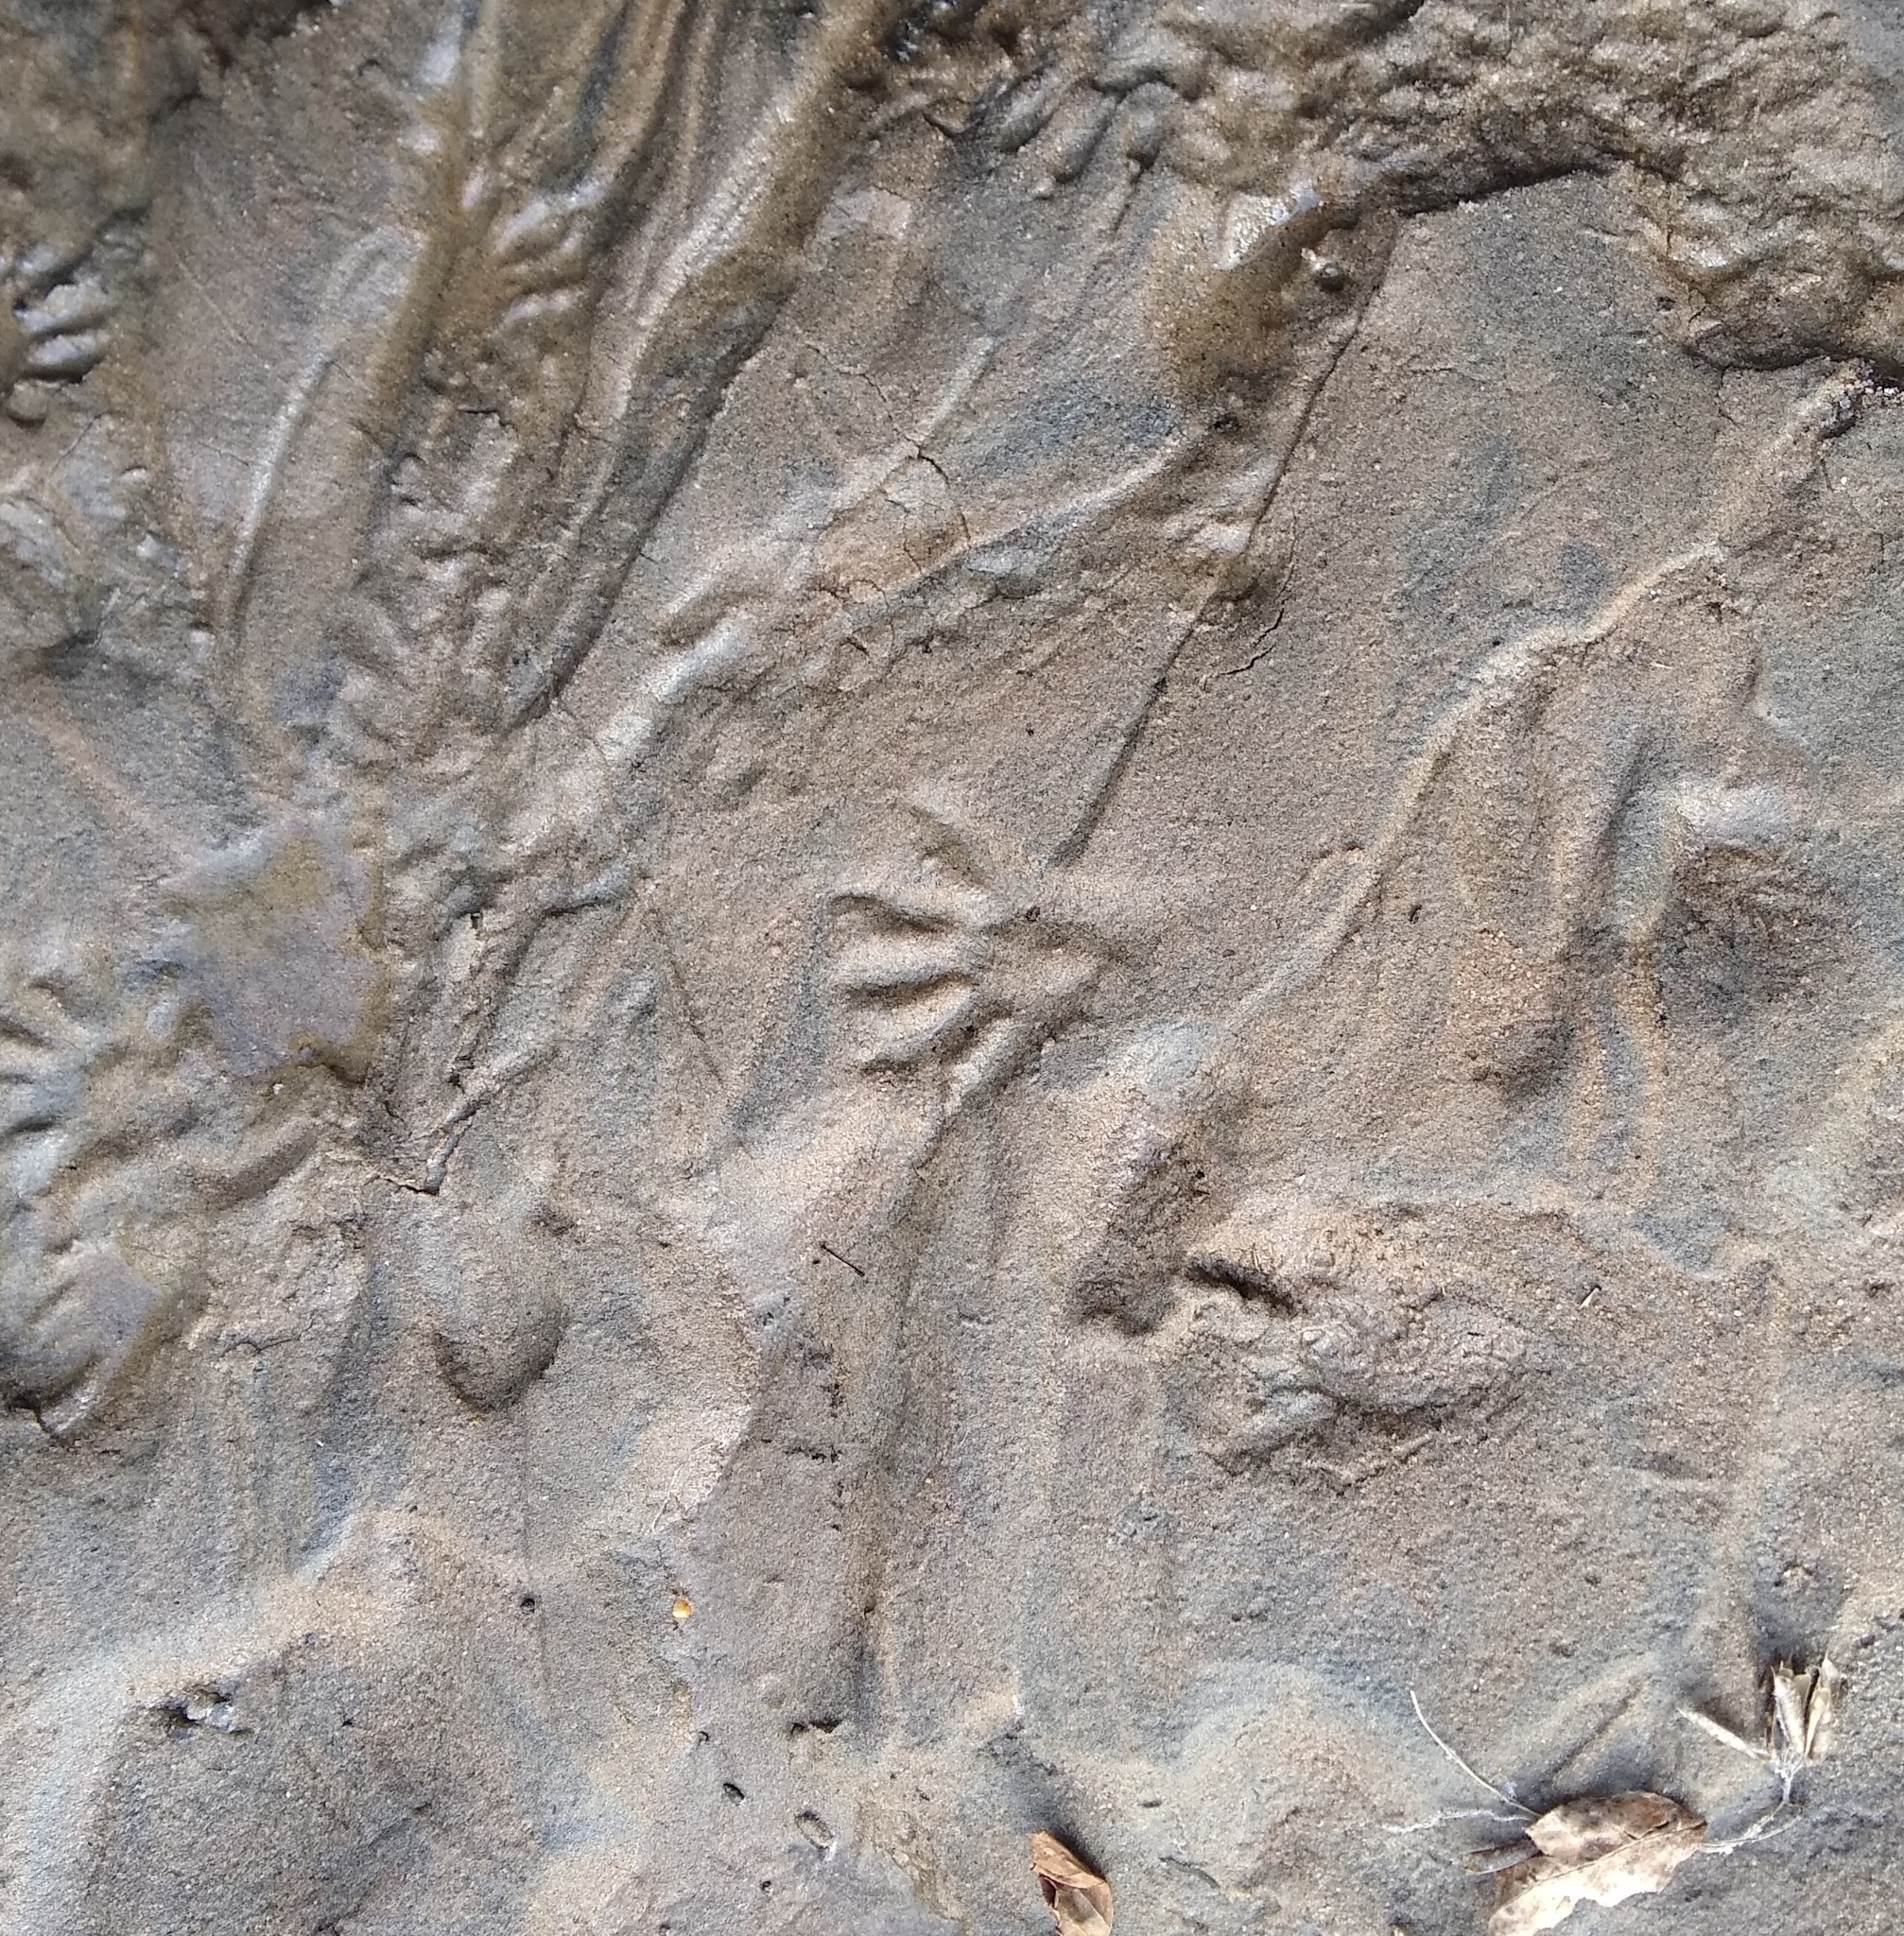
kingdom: Animalia
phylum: Chordata
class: Mammalia
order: Carnivora
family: Procyonidae
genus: Procyon
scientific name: Procyon lotor
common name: Raccoon
